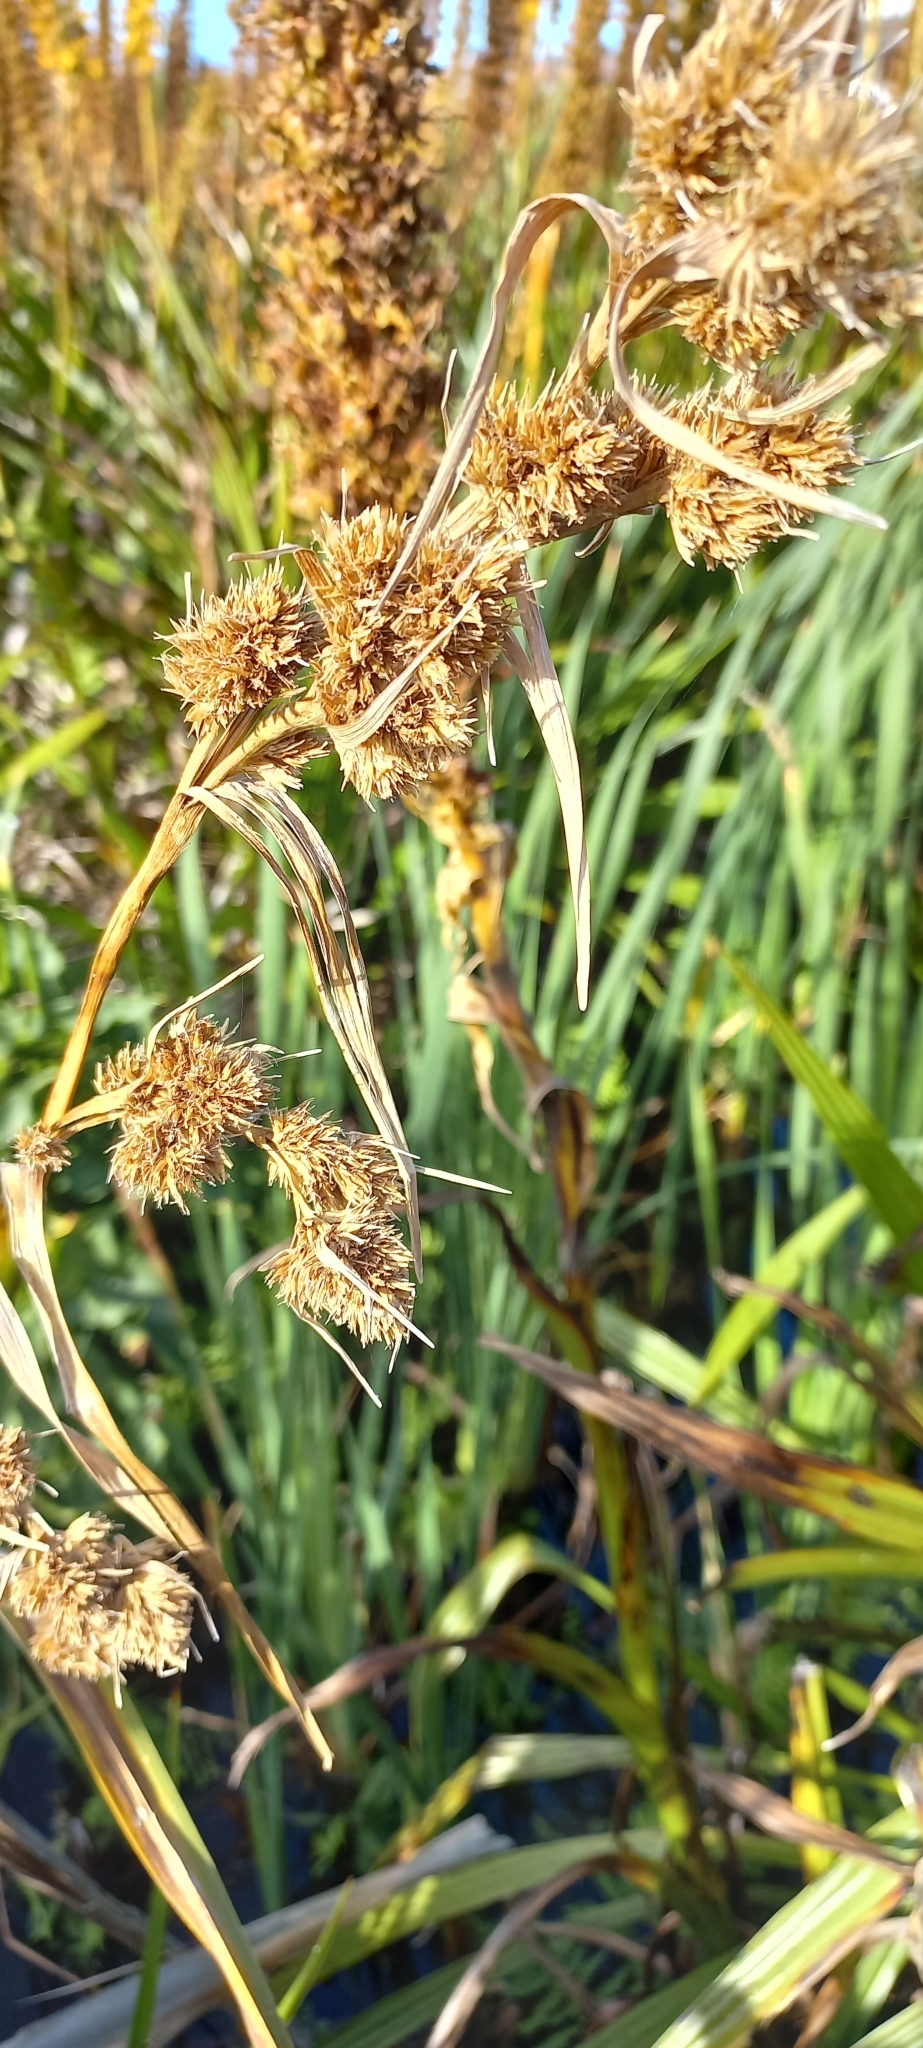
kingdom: Plantae
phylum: Tracheophyta
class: Liliopsida
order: Poales
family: Cyperaceae
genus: Carpha
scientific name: Carpha glomerata
